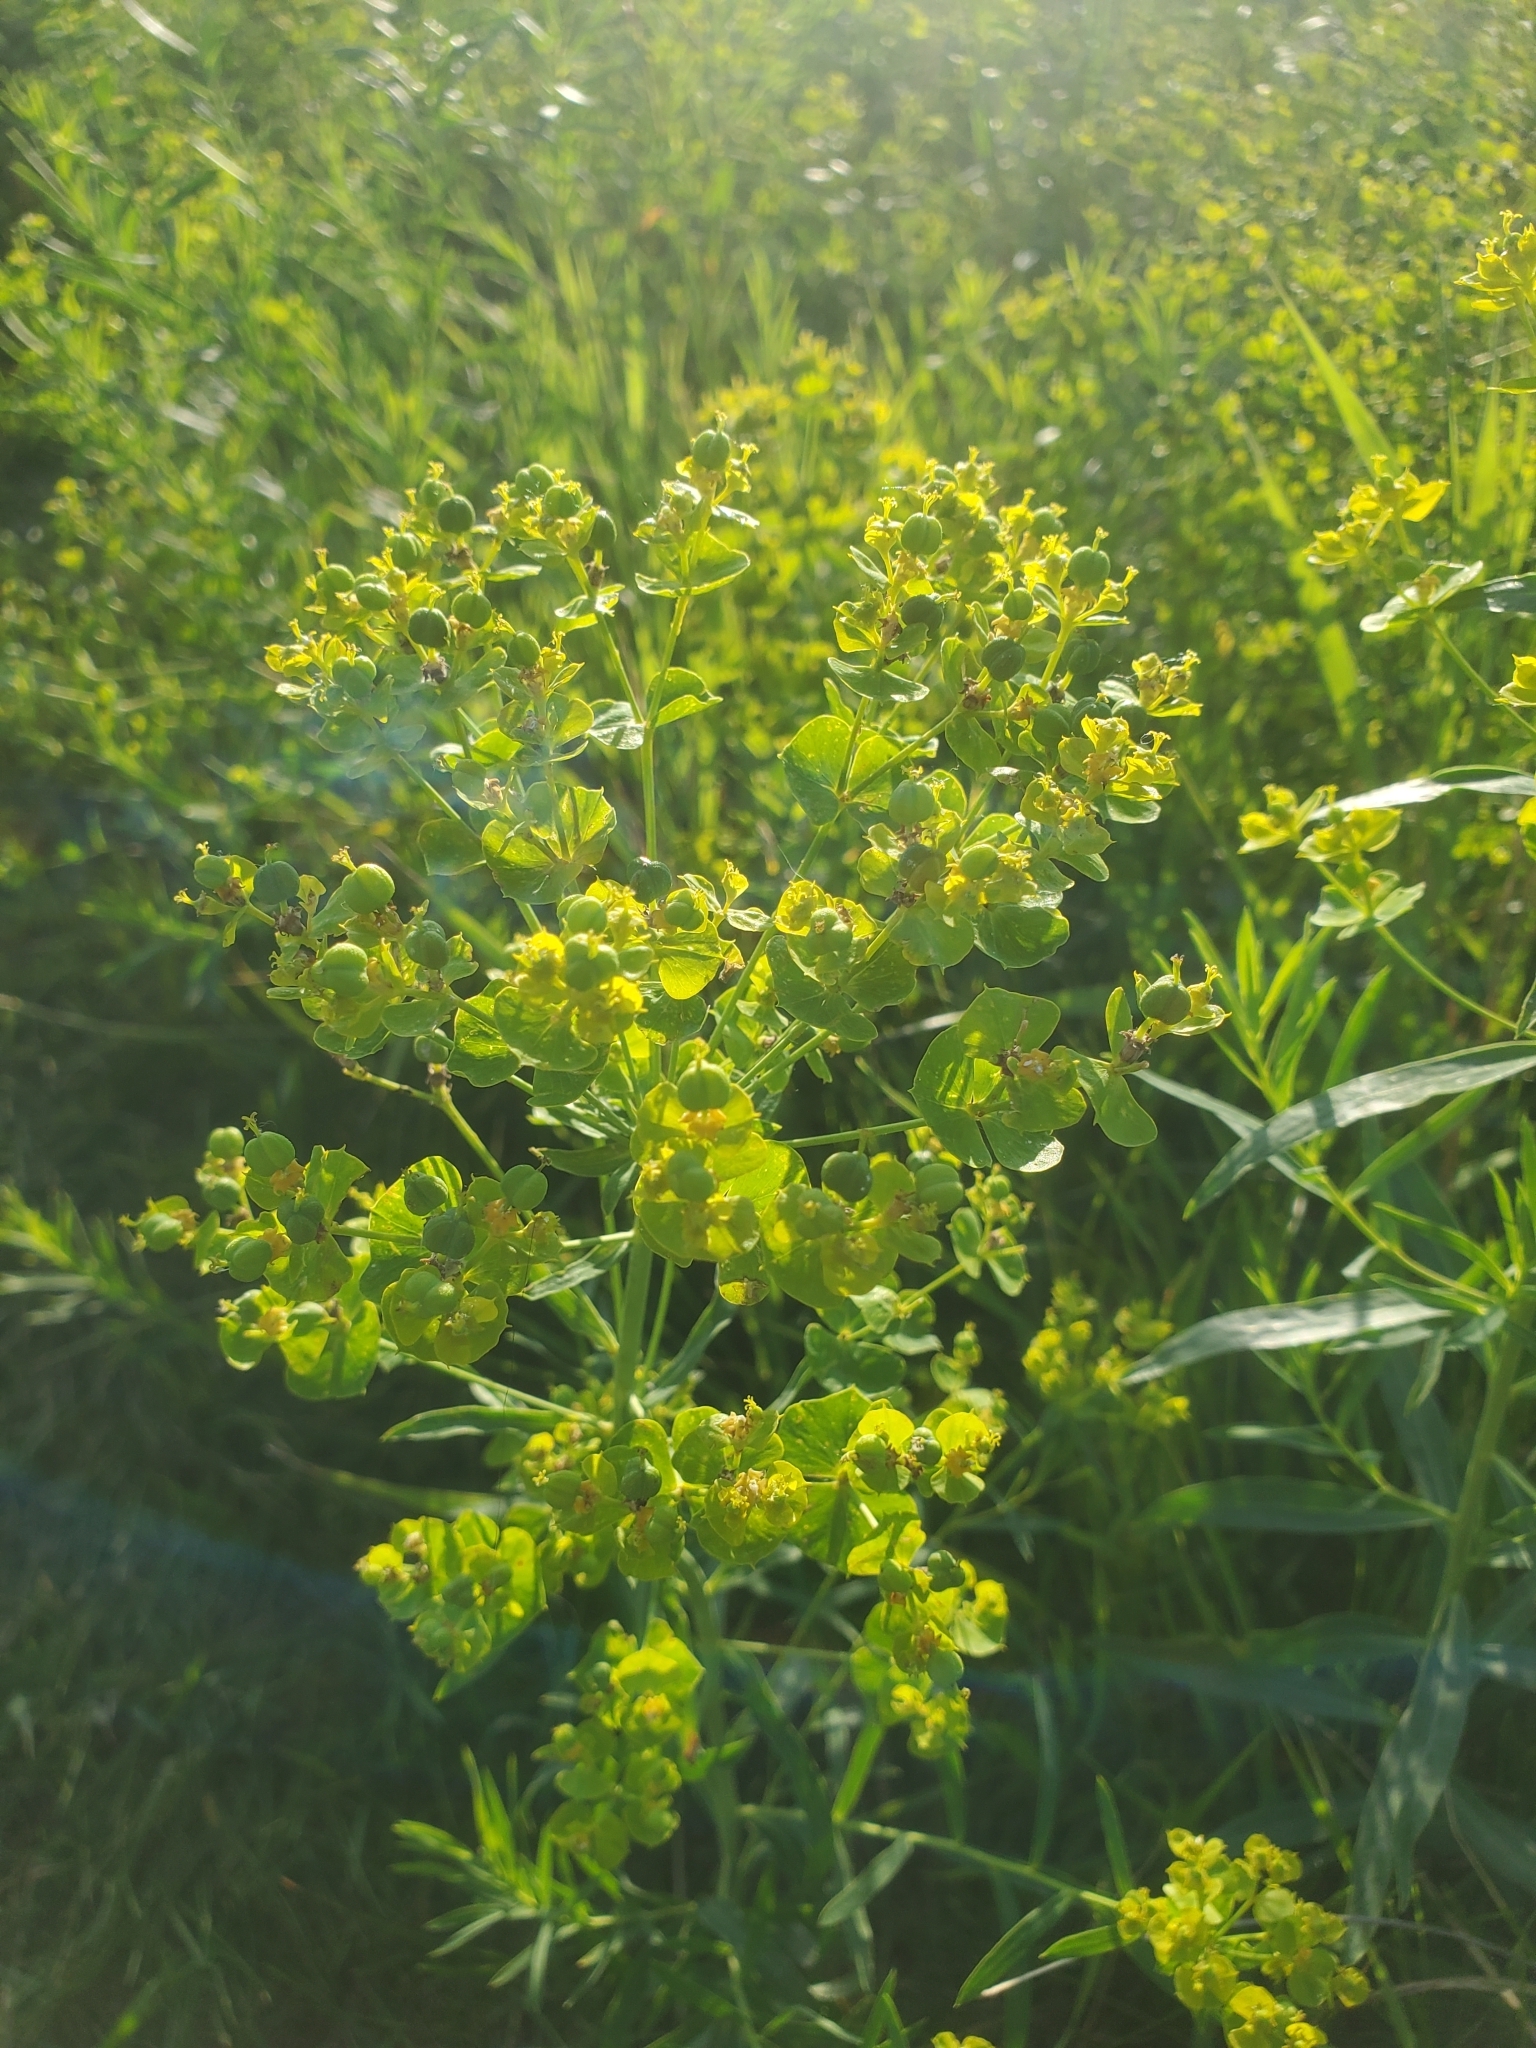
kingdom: Plantae
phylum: Tracheophyta
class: Magnoliopsida
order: Malpighiales
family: Euphorbiaceae
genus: Euphorbia
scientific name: Euphorbia virgata
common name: Leafy spurge
